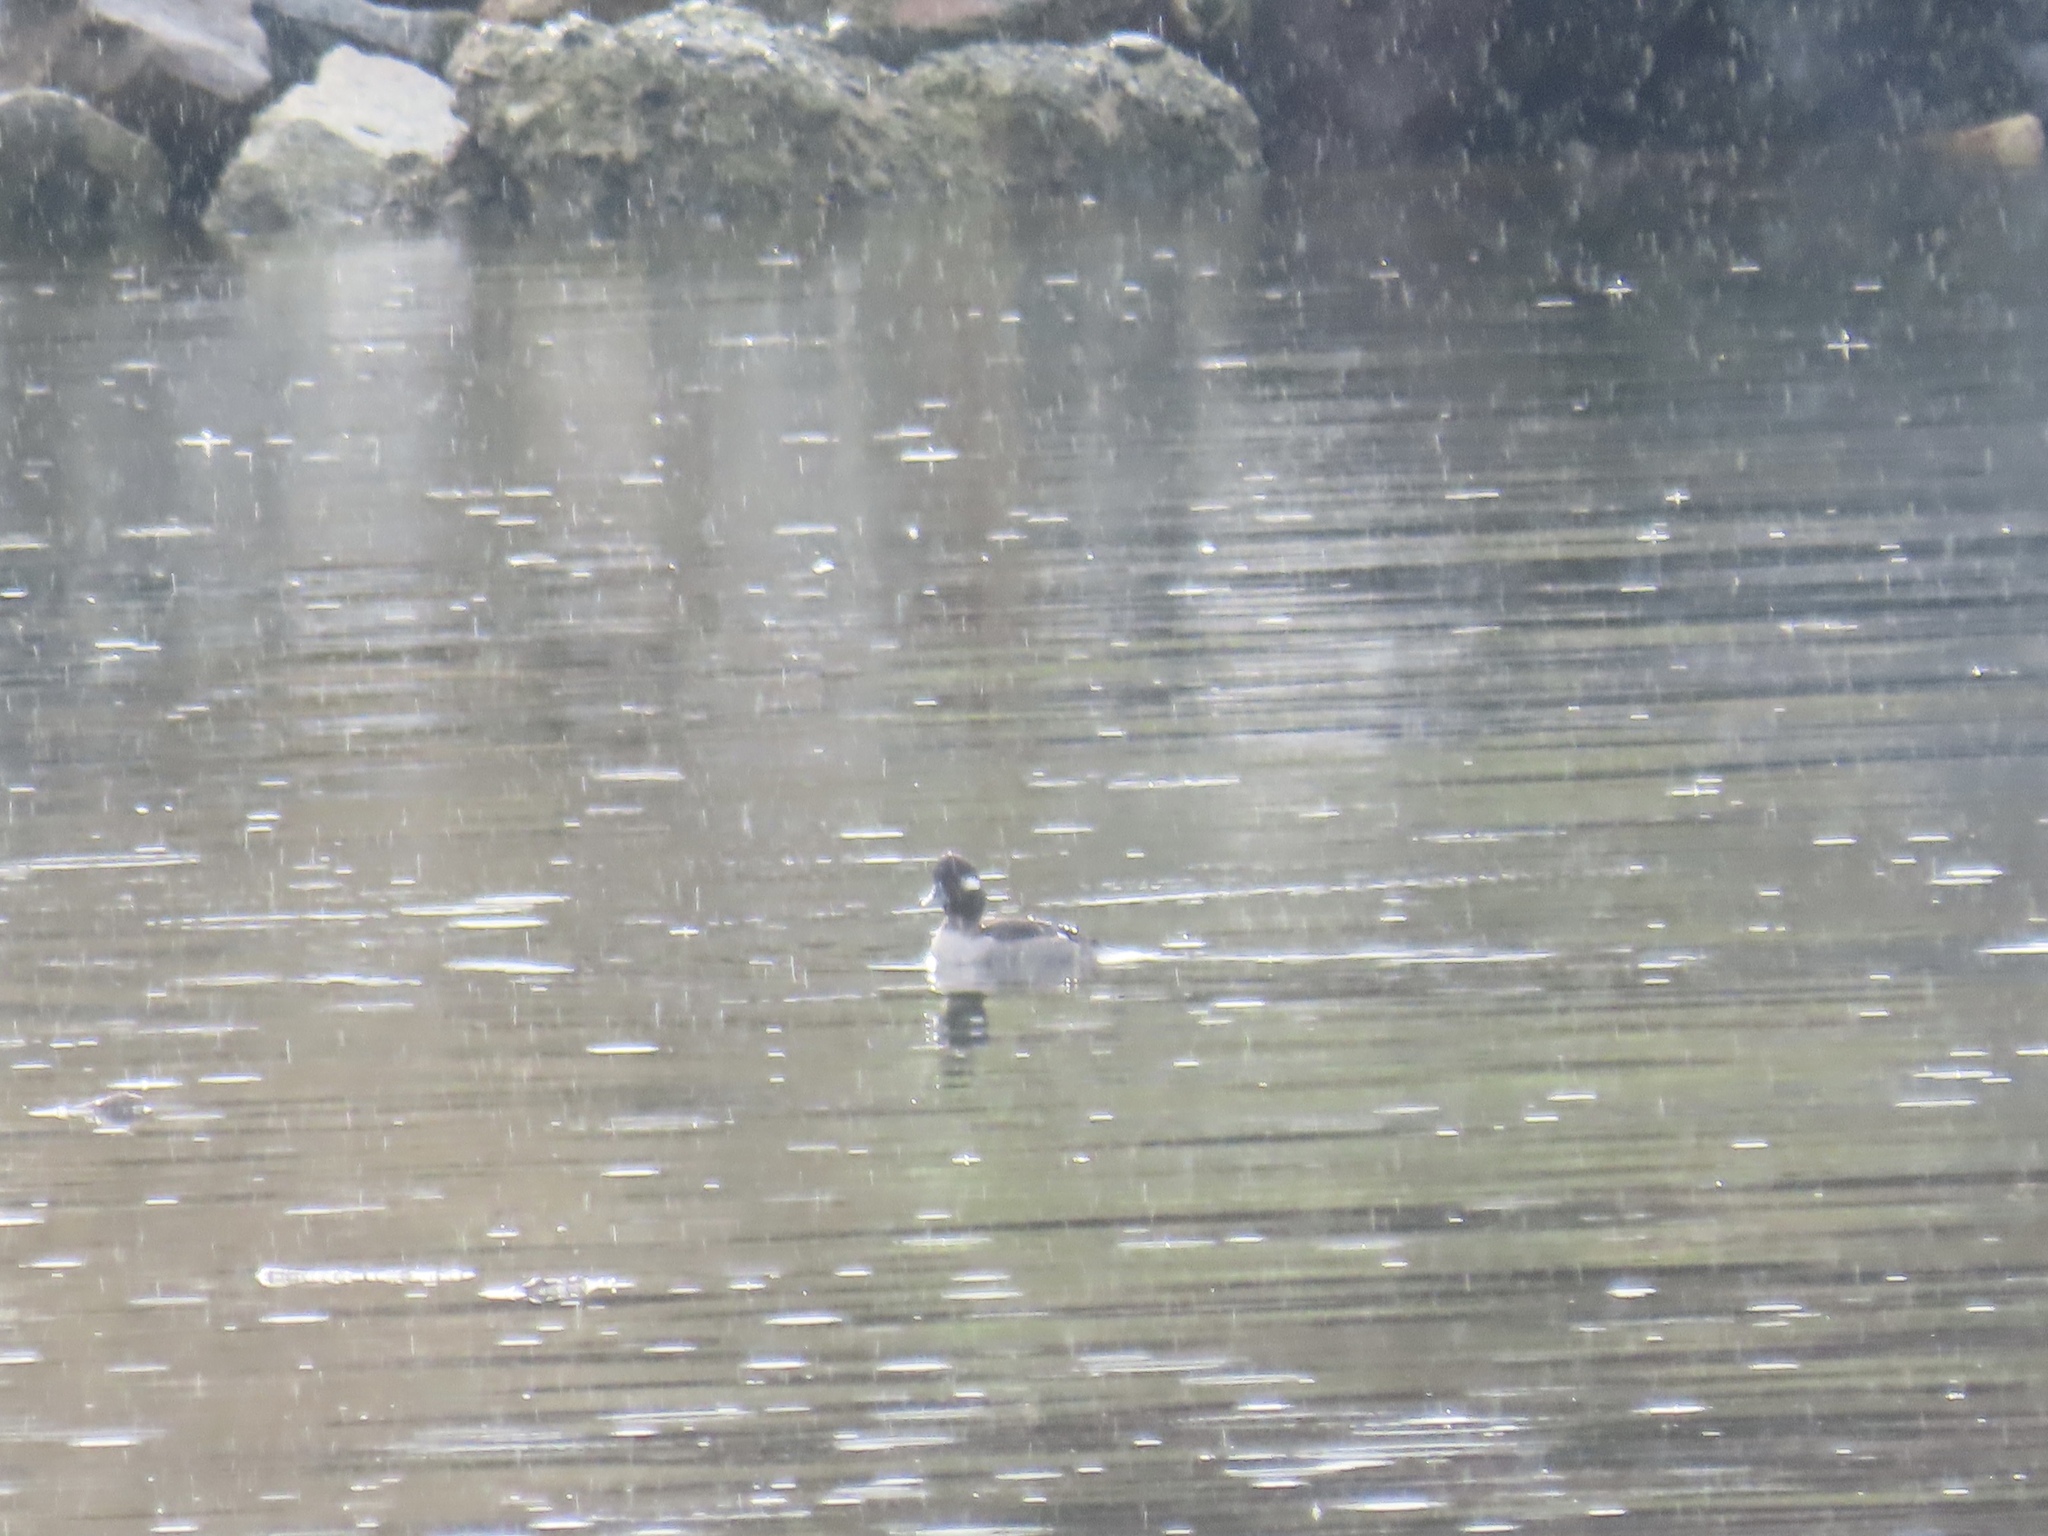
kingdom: Animalia
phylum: Chordata
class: Aves
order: Anseriformes
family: Anatidae
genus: Bucephala
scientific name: Bucephala albeola
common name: Bufflehead
